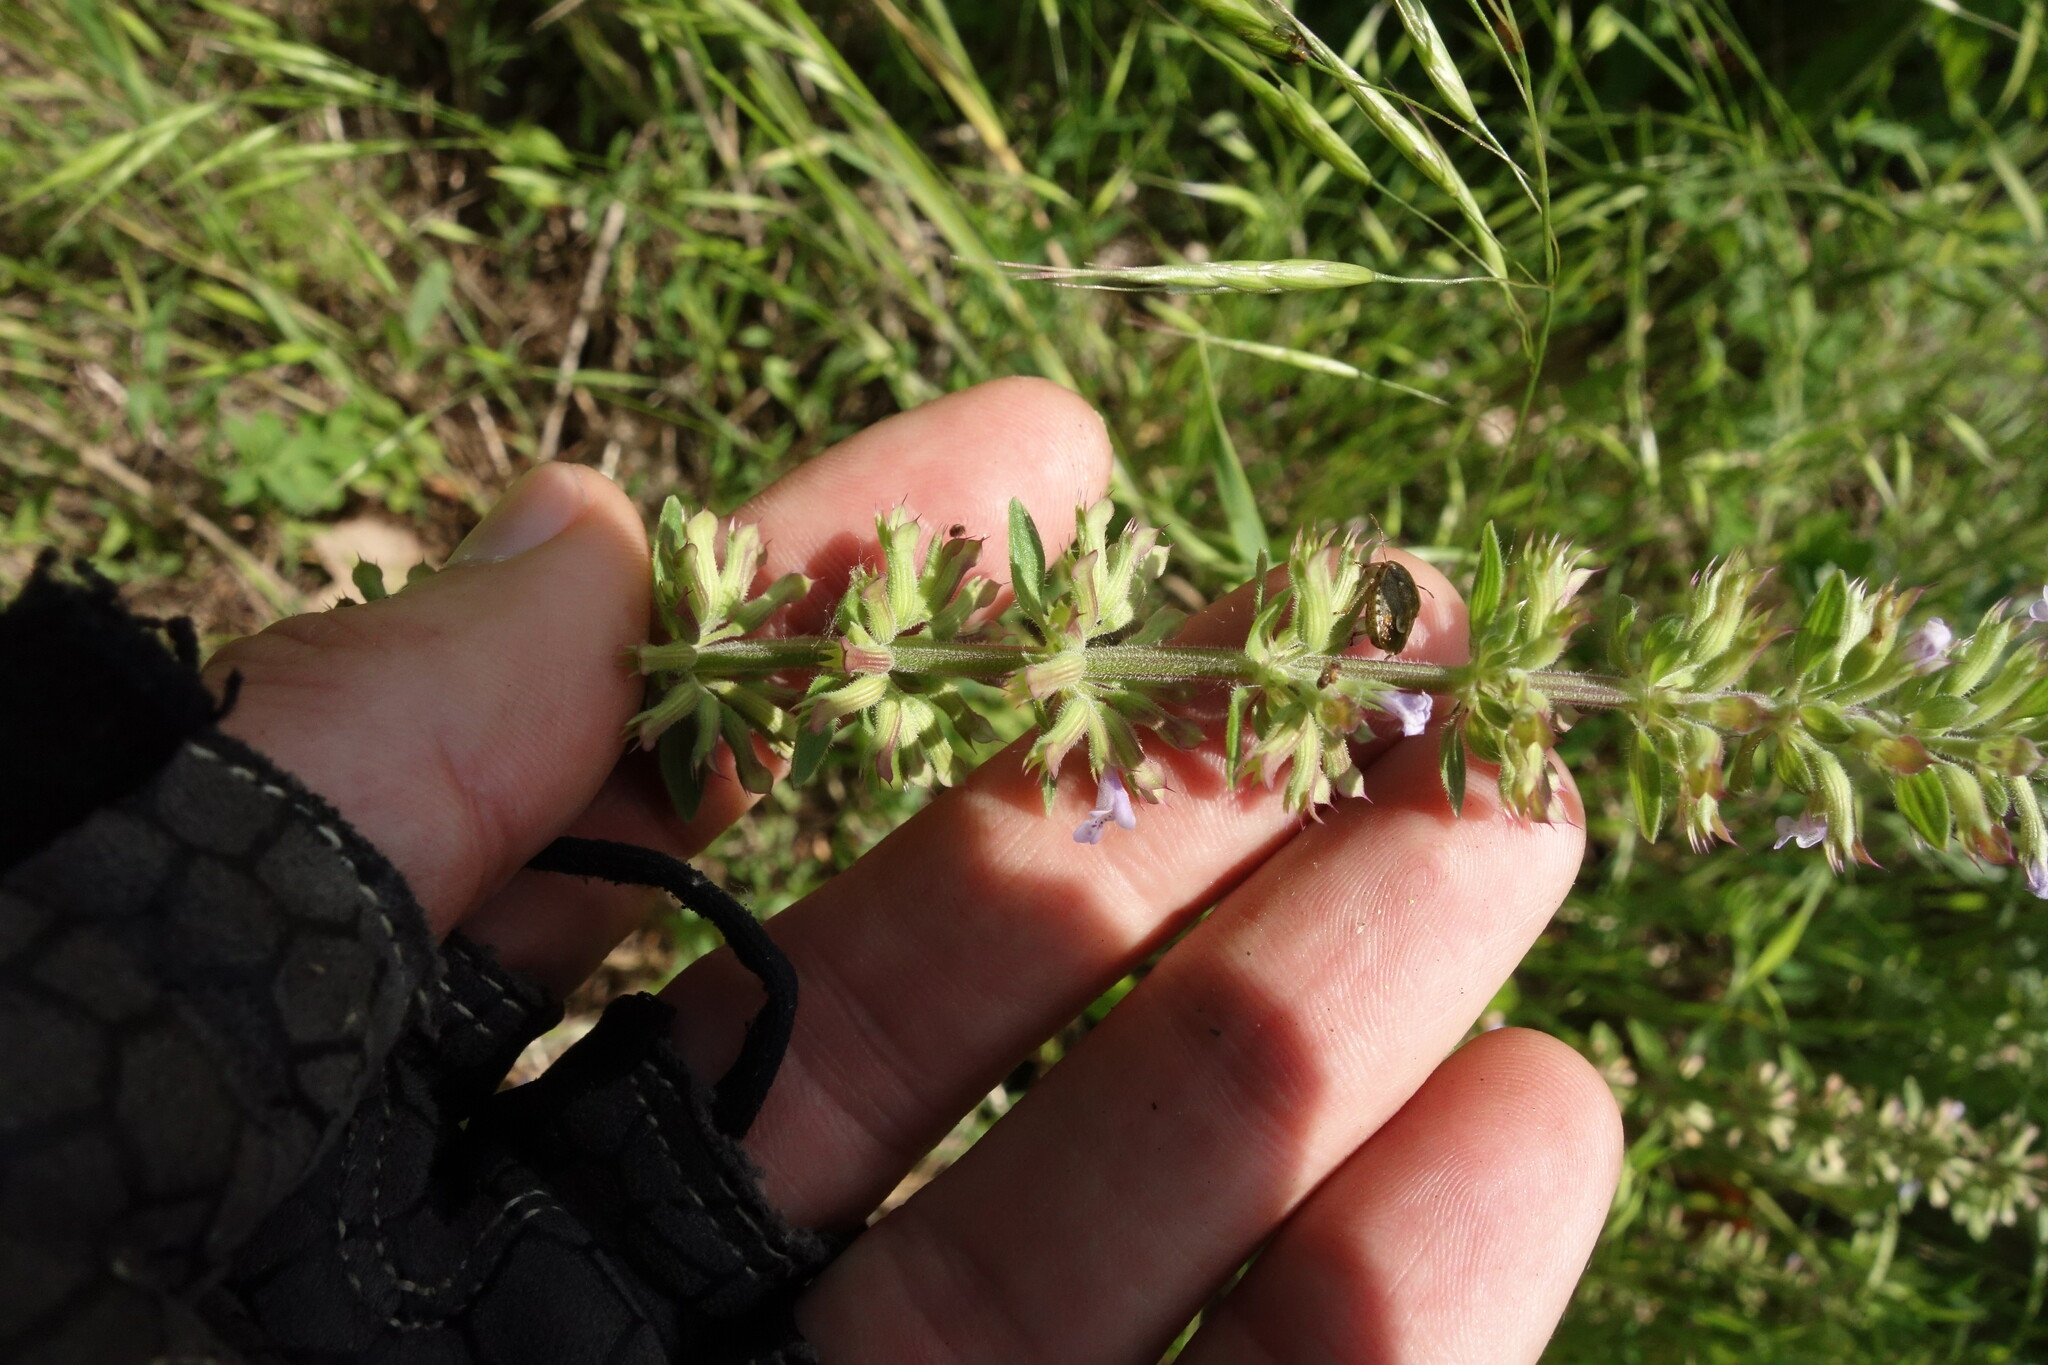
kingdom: Plantae
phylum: Tracheophyta
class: Magnoliopsida
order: Lamiales
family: Lamiaceae
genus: Dracocephalum
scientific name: Dracocephalum thymiflorum
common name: Thymeleaf dragonhead
